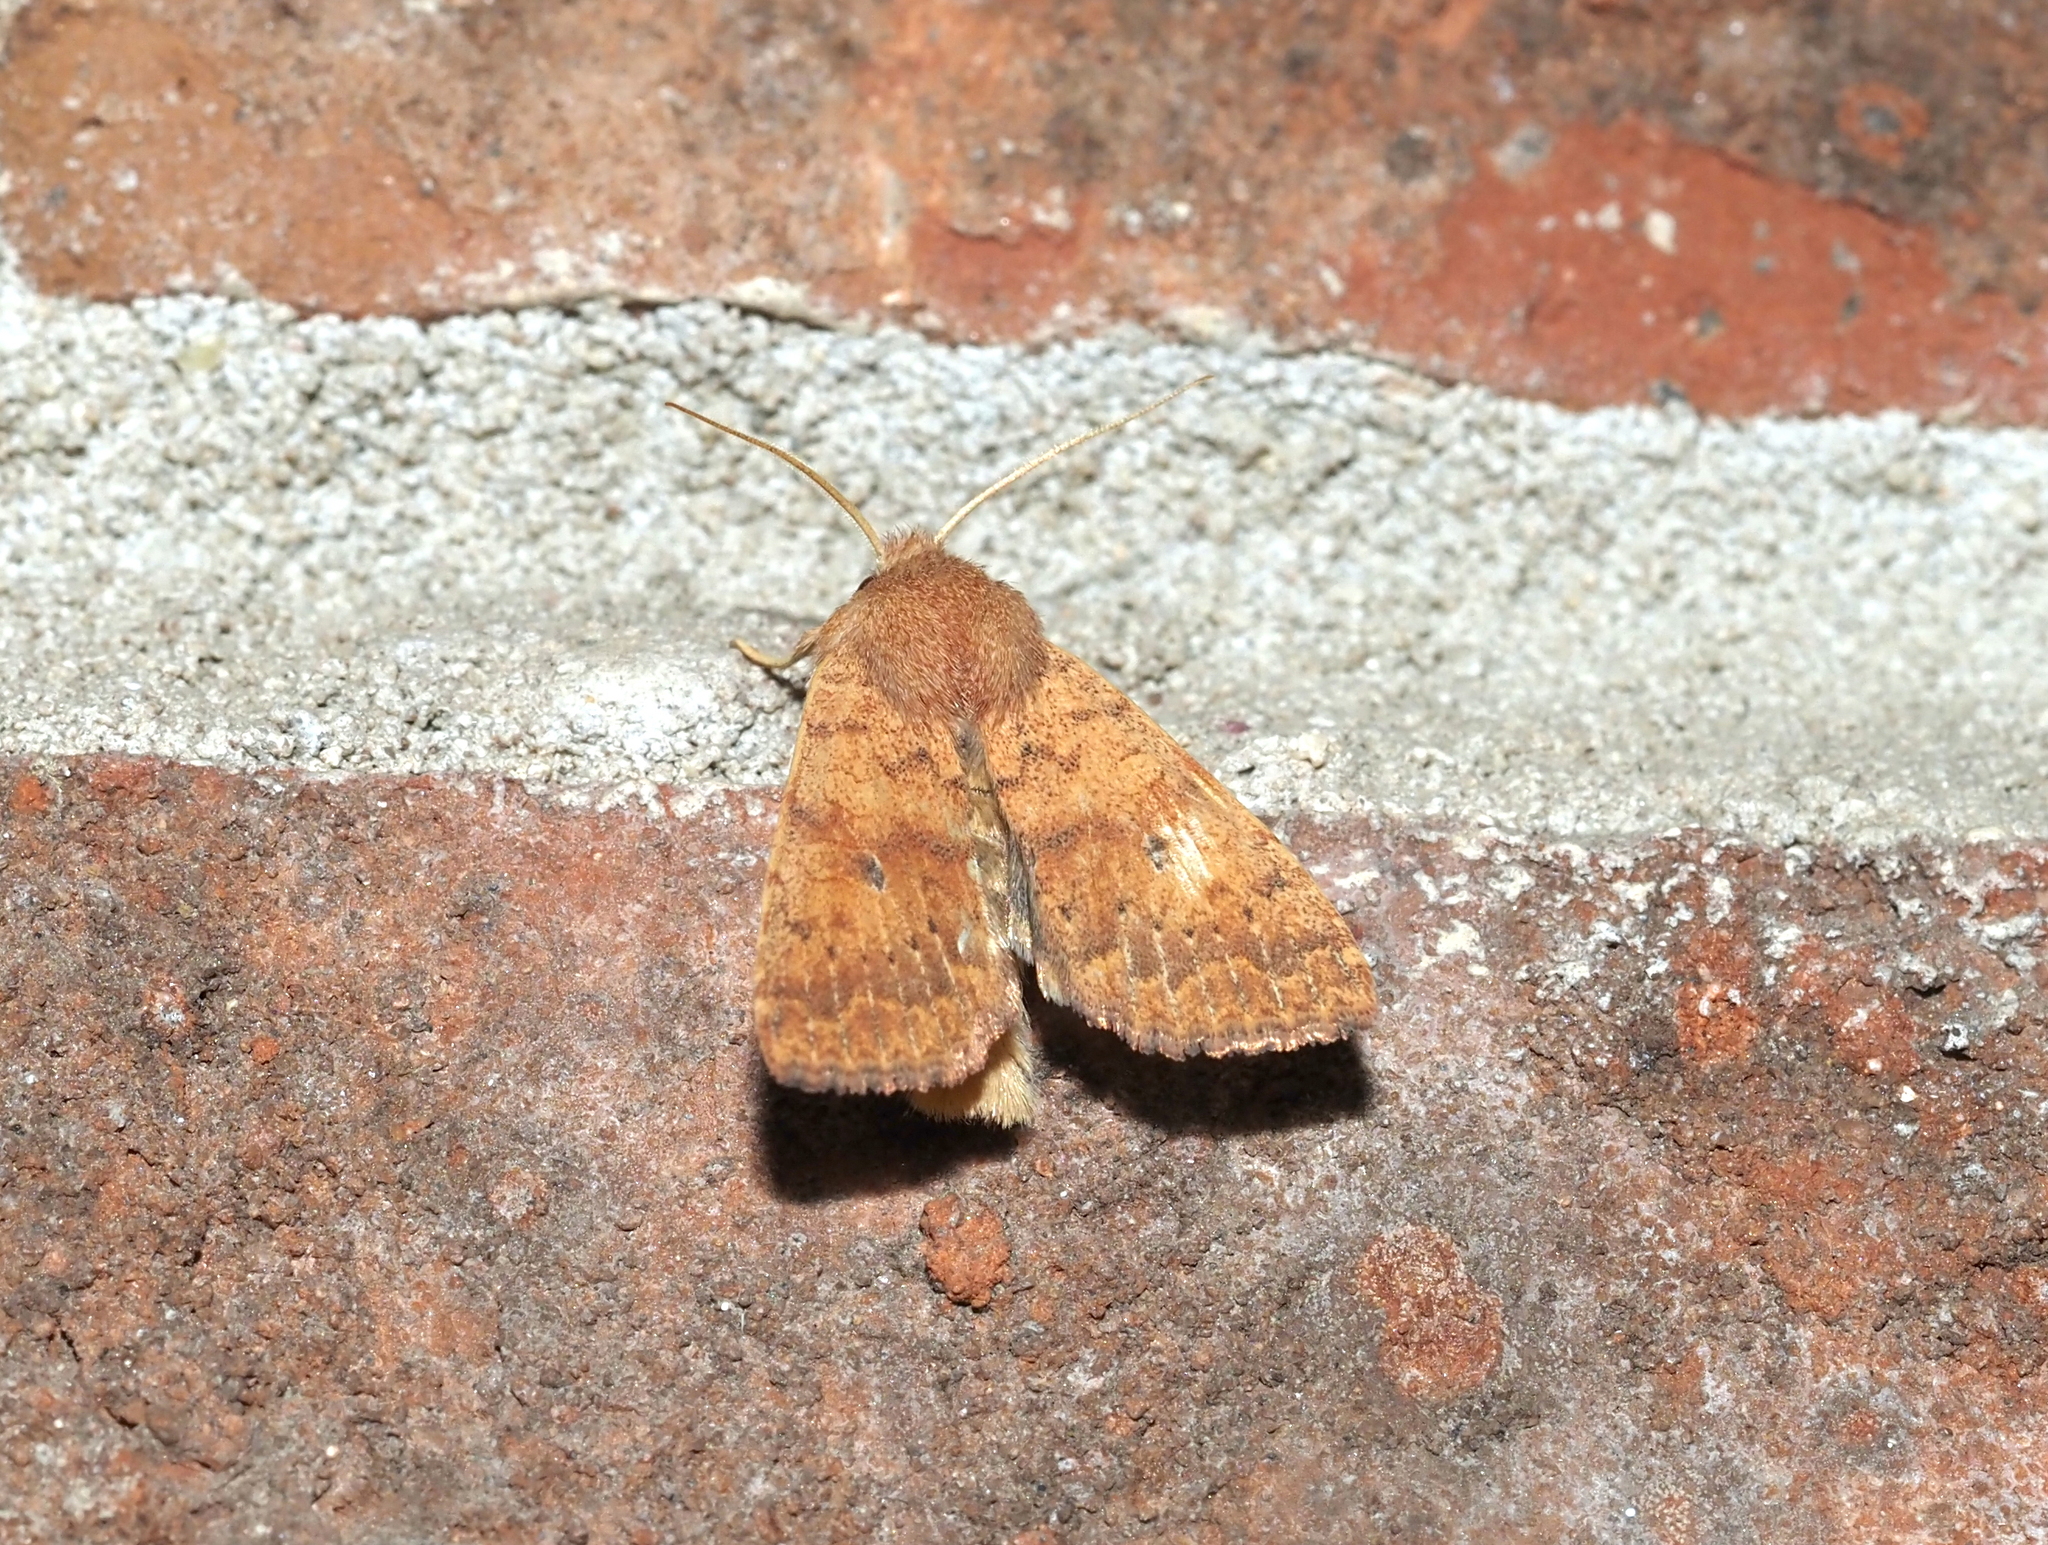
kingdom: Animalia
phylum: Arthropoda
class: Insecta
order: Lepidoptera
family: Noctuidae
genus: Agrochola
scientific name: Agrochola bicolorago
